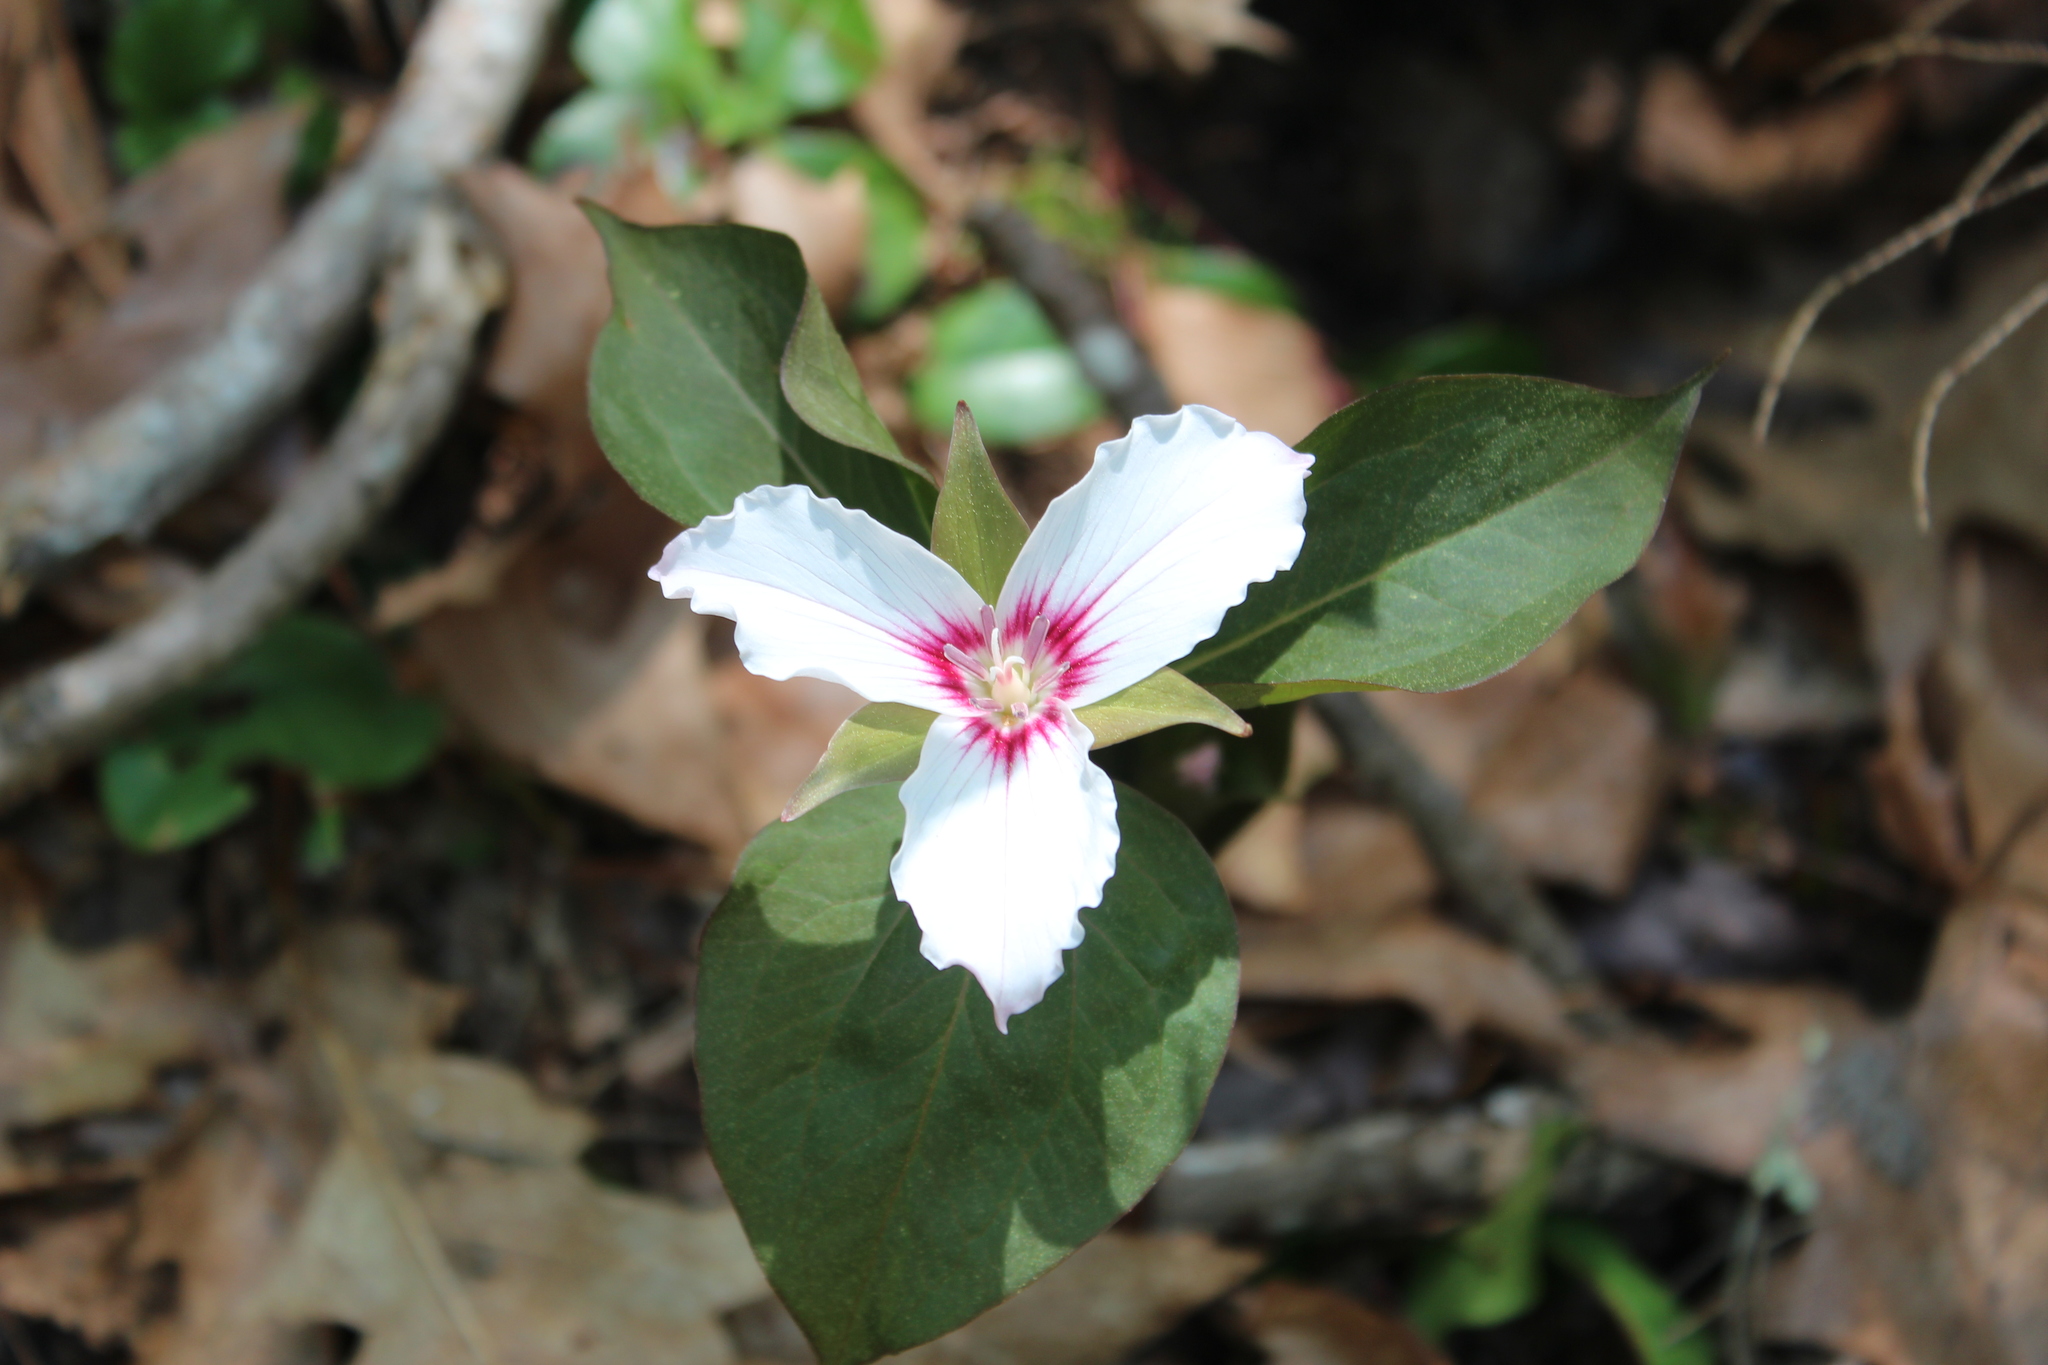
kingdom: Plantae
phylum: Tracheophyta
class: Liliopsida
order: Liliales
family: Melanthiaceae
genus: Trillium
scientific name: Trillium undulatum
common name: Paint trillium
